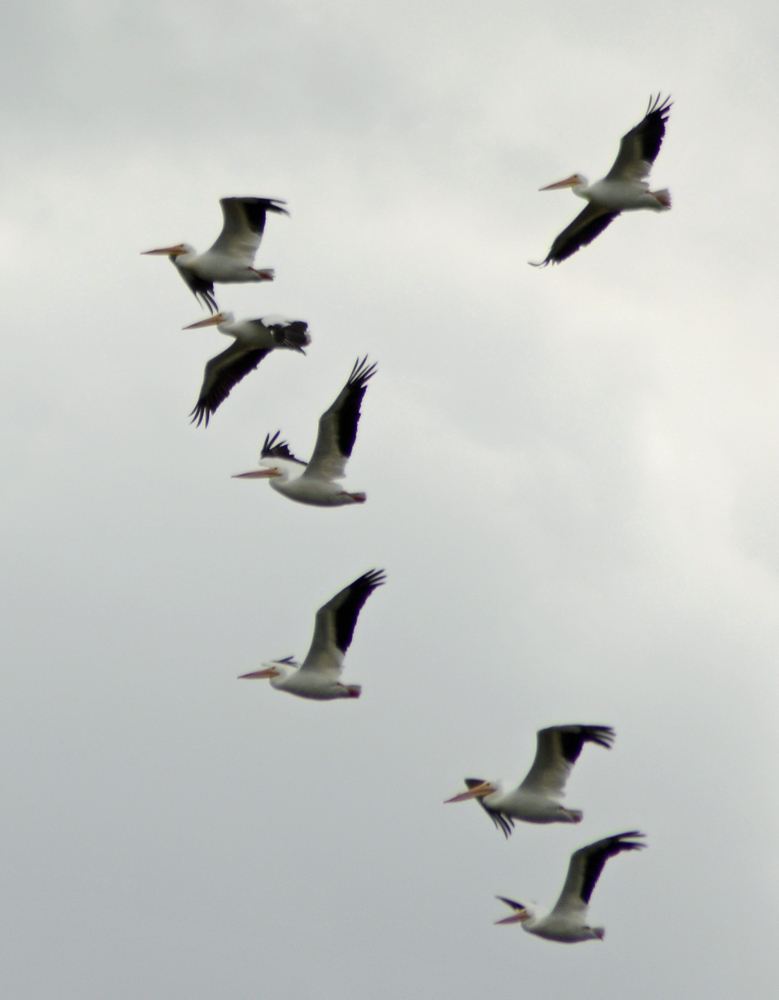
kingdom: Animalia
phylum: Chordata
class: Aves
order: Pelecaniformes
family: Pelecanidae
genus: Pelecanus
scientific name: Pelecanus erythrorhynchos
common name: American white pelican
